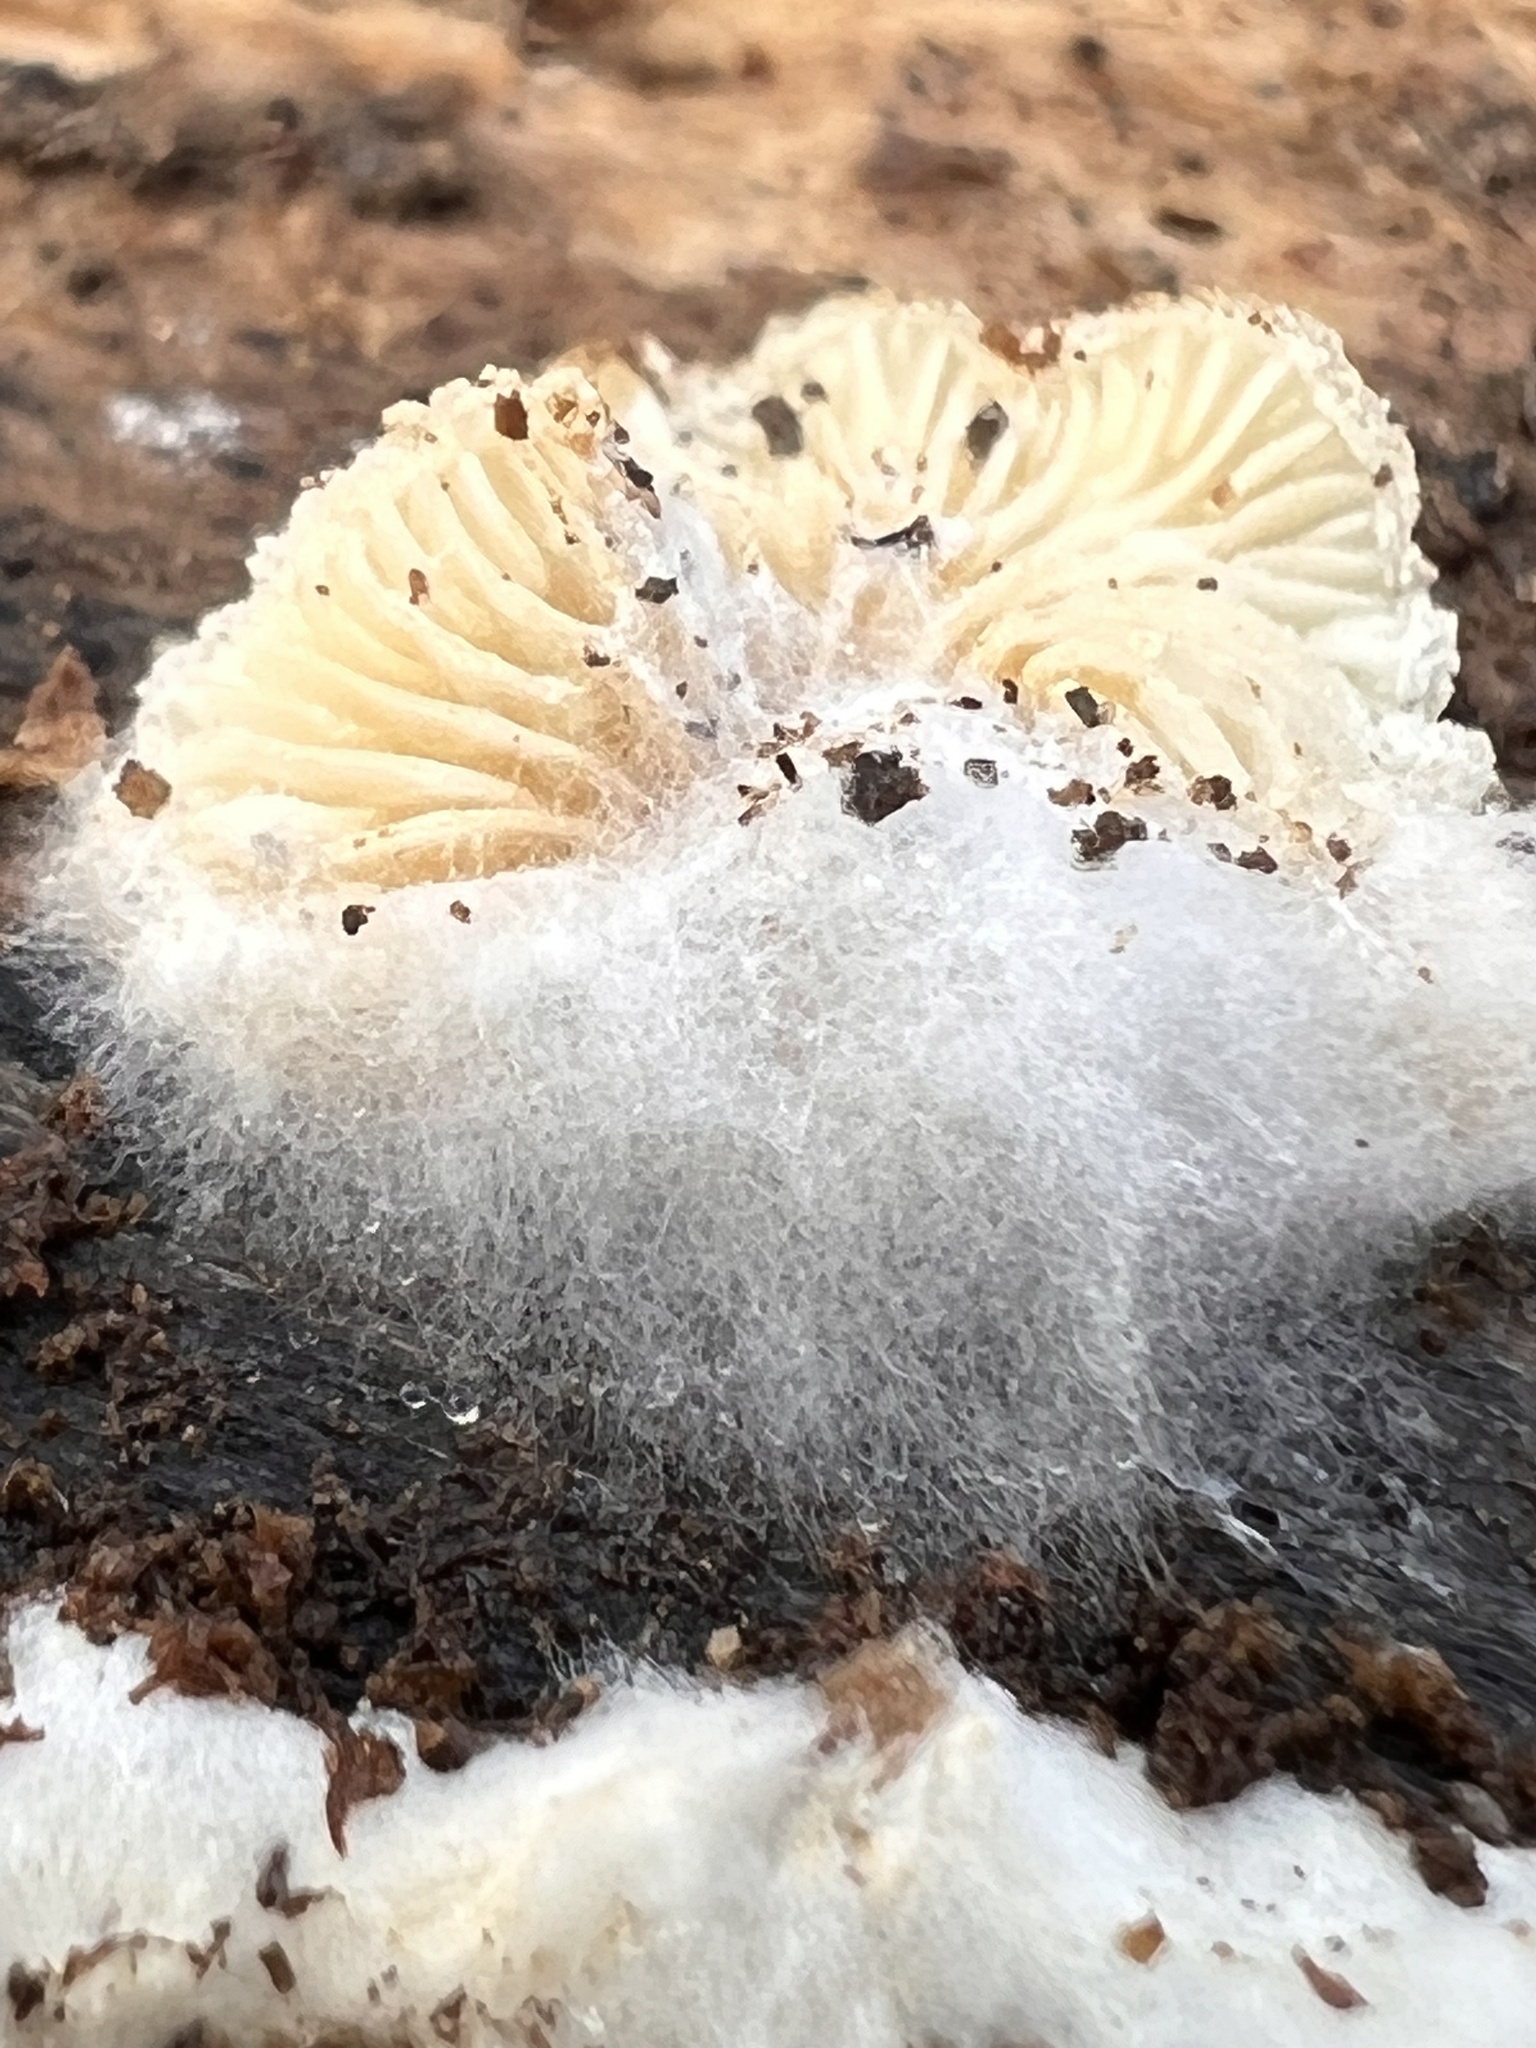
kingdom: Fungi
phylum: Mucoromycota
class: Mucoromycetes
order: Mucorales
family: Rhizopodaceae
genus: Syzygites
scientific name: Syzygites megalocarpus
